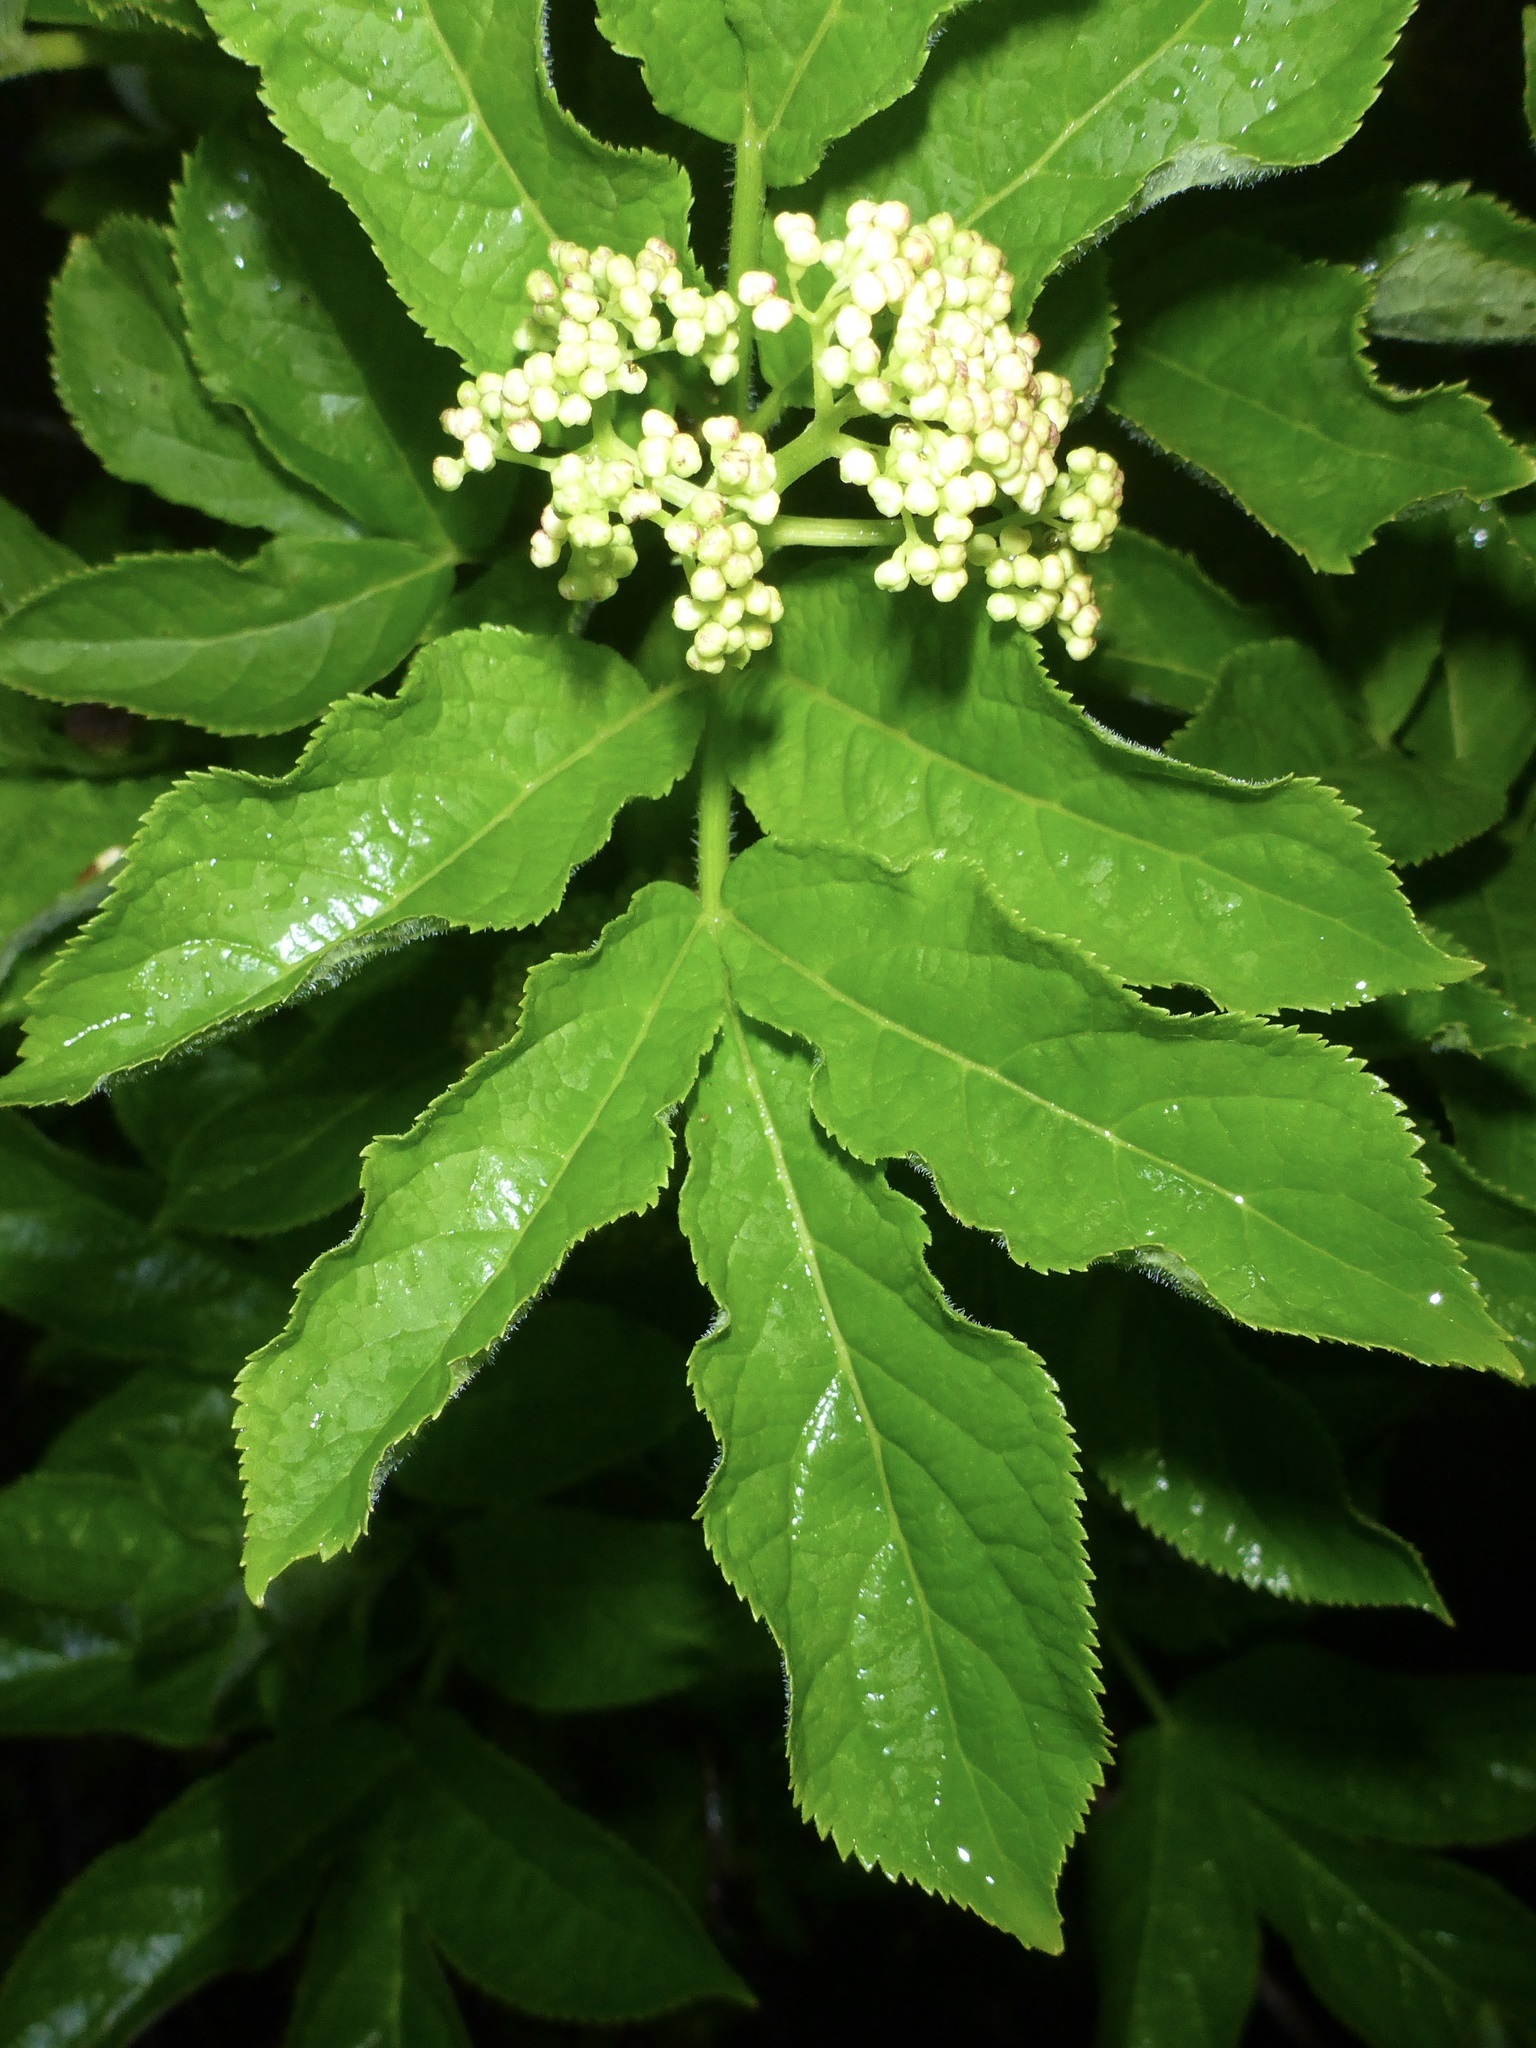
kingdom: Plantae
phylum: Tracheophyta
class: Magnoliopsida
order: Dipsacales
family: Viburnaceae
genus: Sambucus
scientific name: Sambucus racemosa
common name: Red-berried elder
